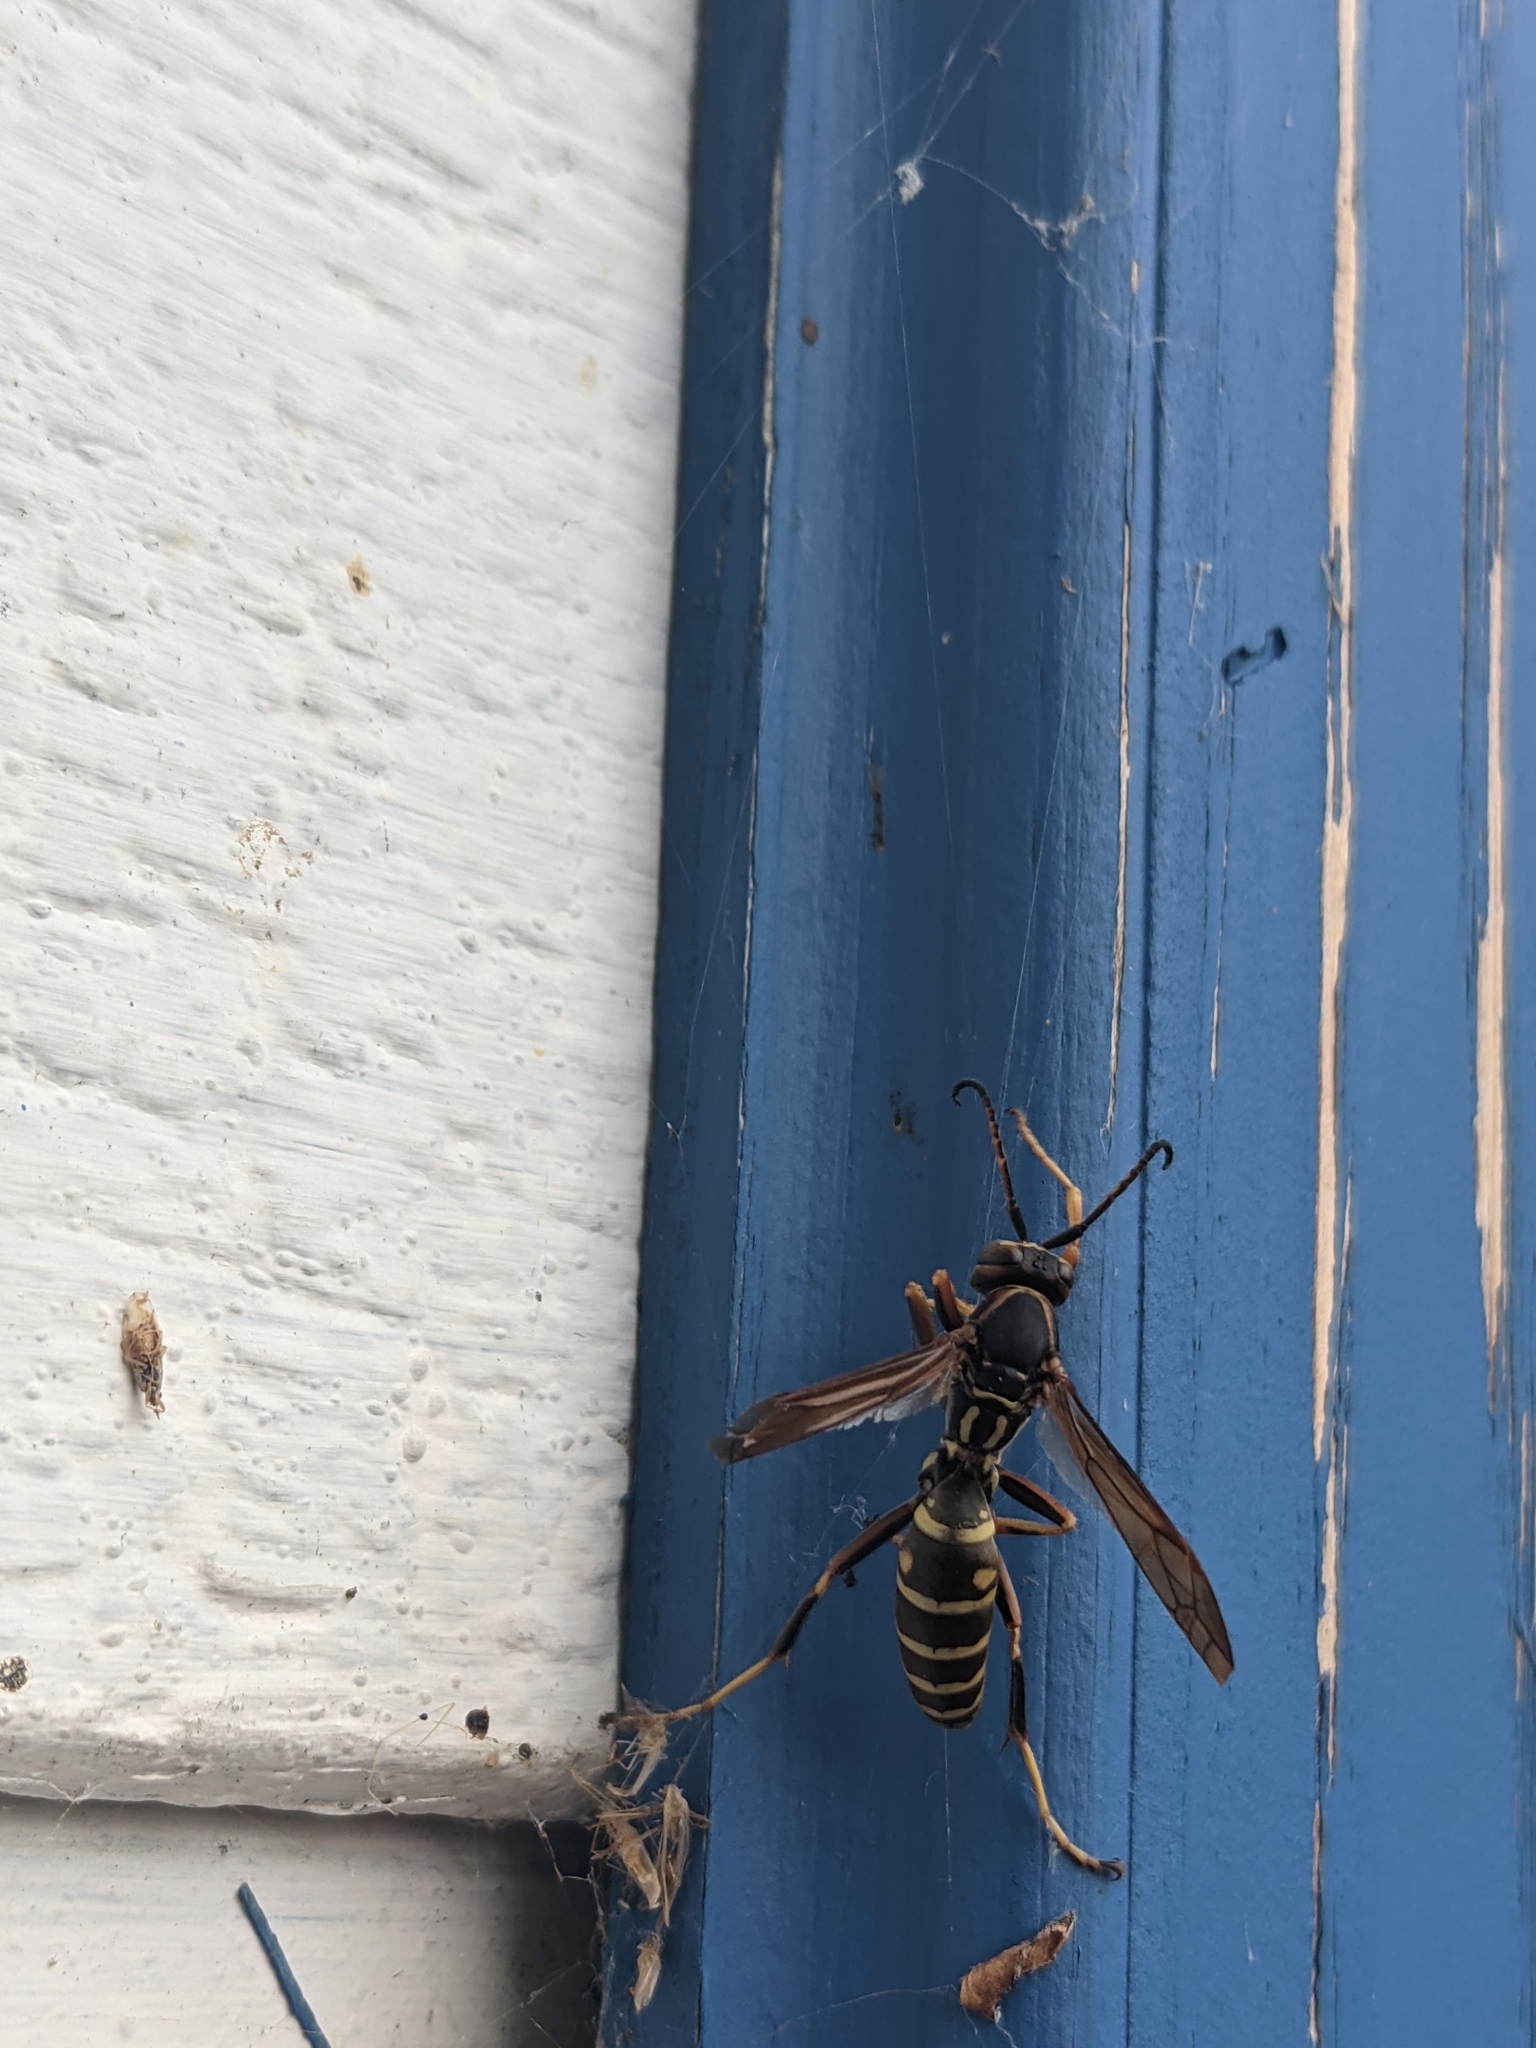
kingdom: Animalia
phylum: Arthropoda
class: Insecta
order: Hymenoptera
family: Eumenidae
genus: Polistes
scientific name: Polistes fuscatus
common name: Dark paper wasp
